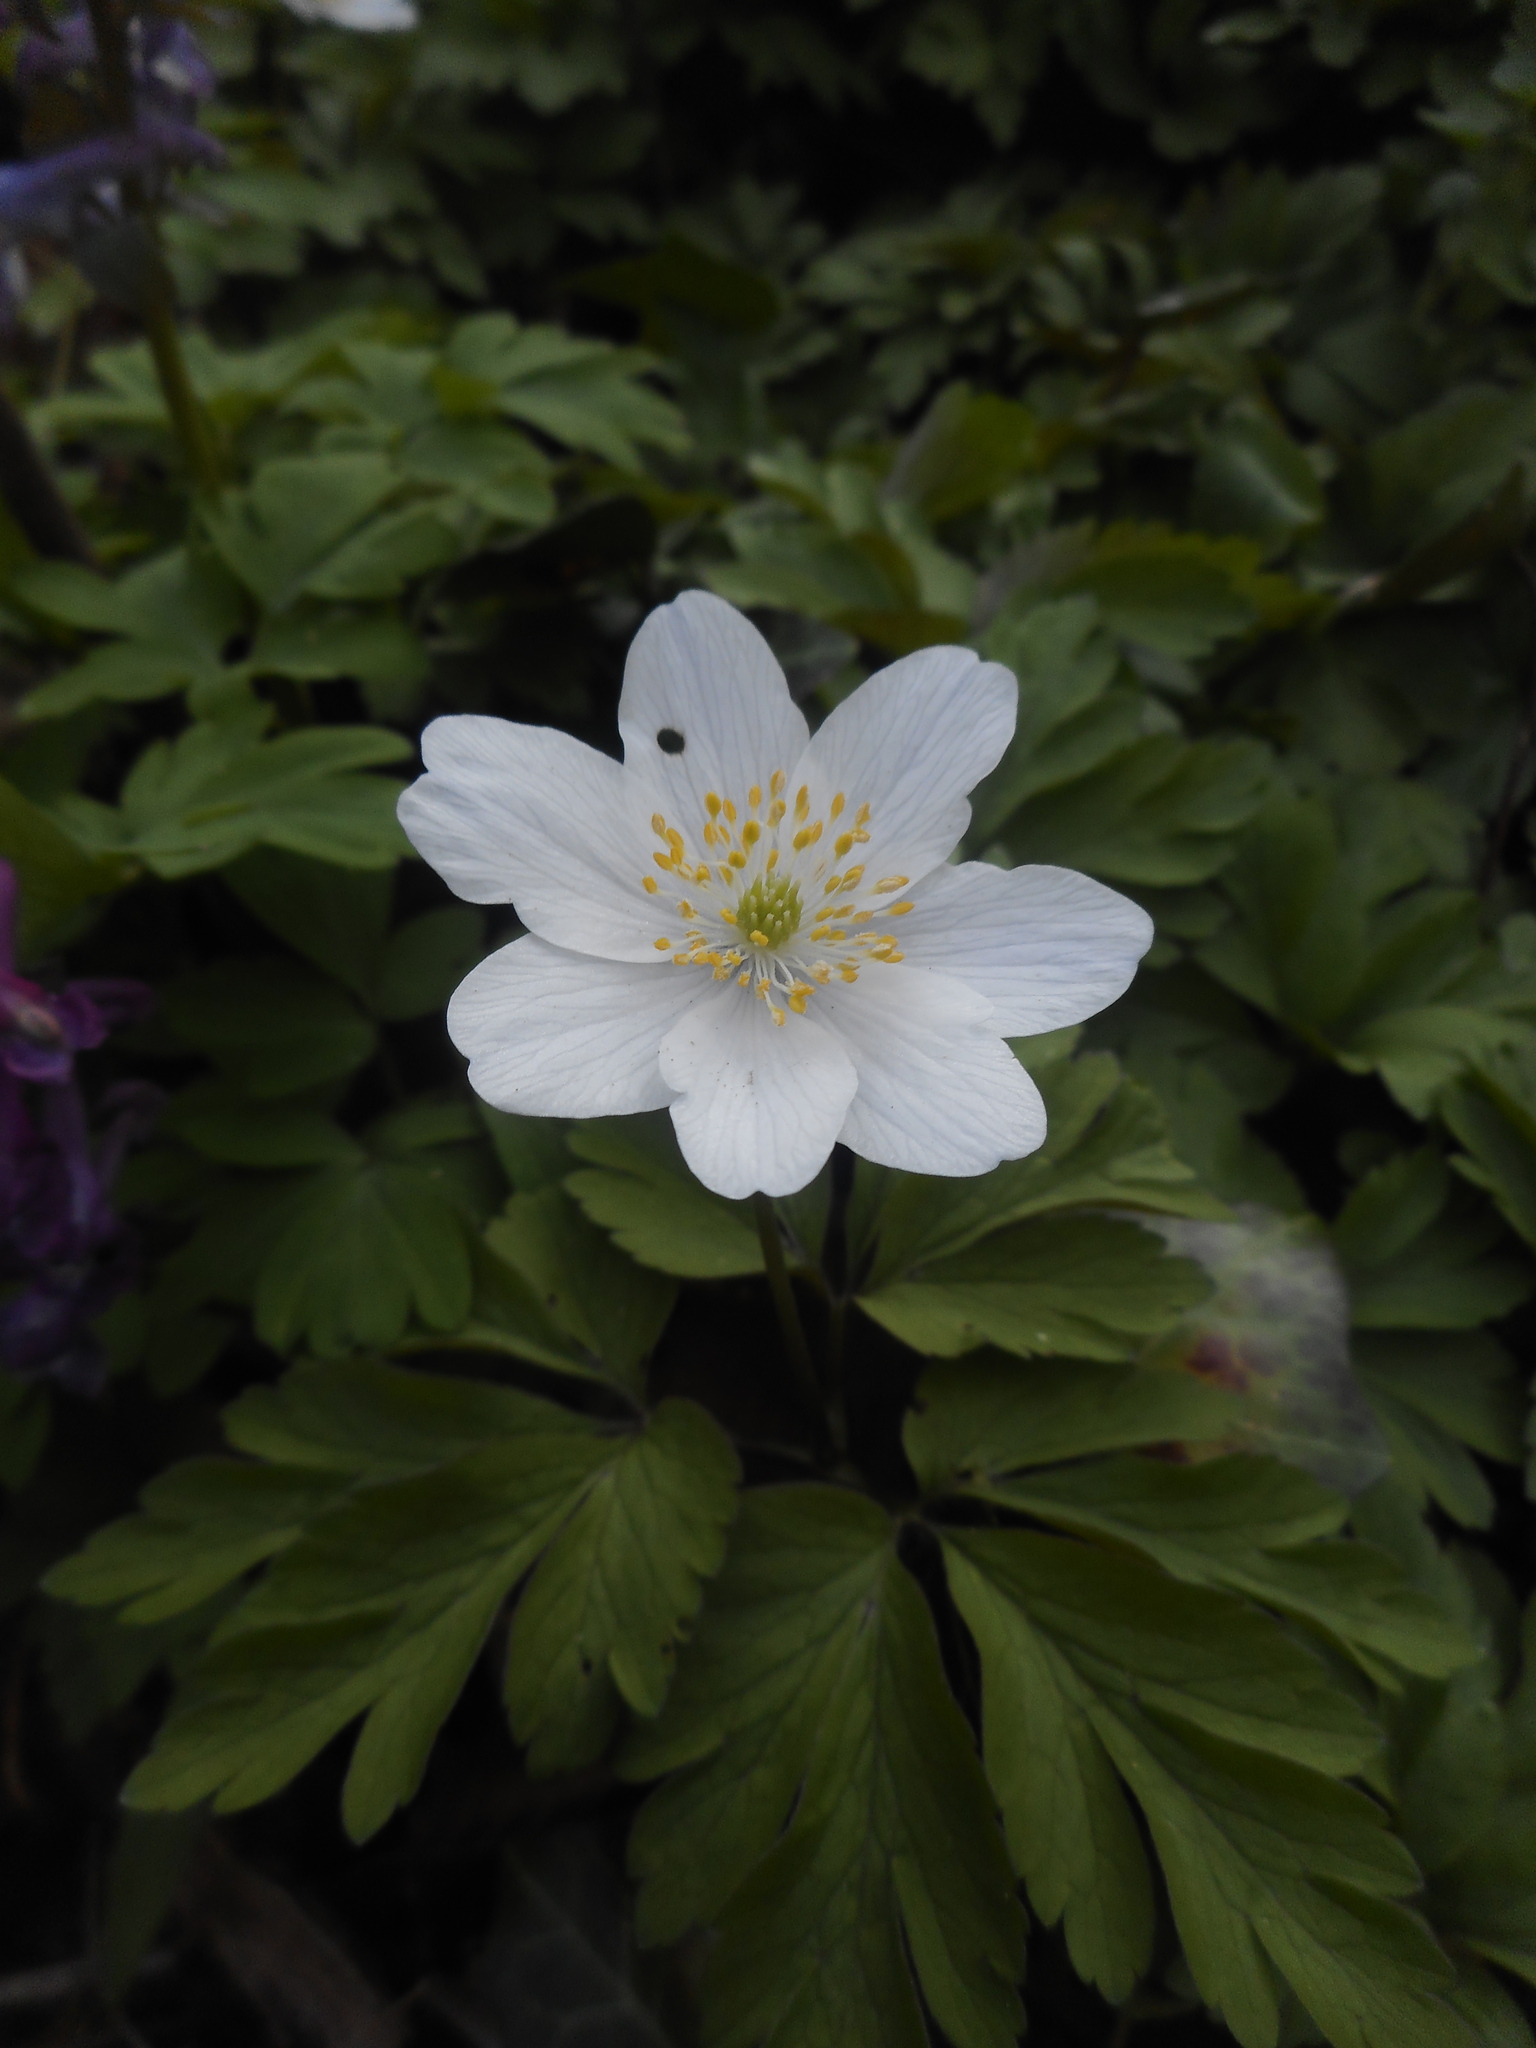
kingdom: Plantae
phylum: Tracheophyta
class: Magnoliopsida
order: Ranunculales
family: Ranunculaceae
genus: Anemone
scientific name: Anemone nemorosa
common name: Wood anemone
